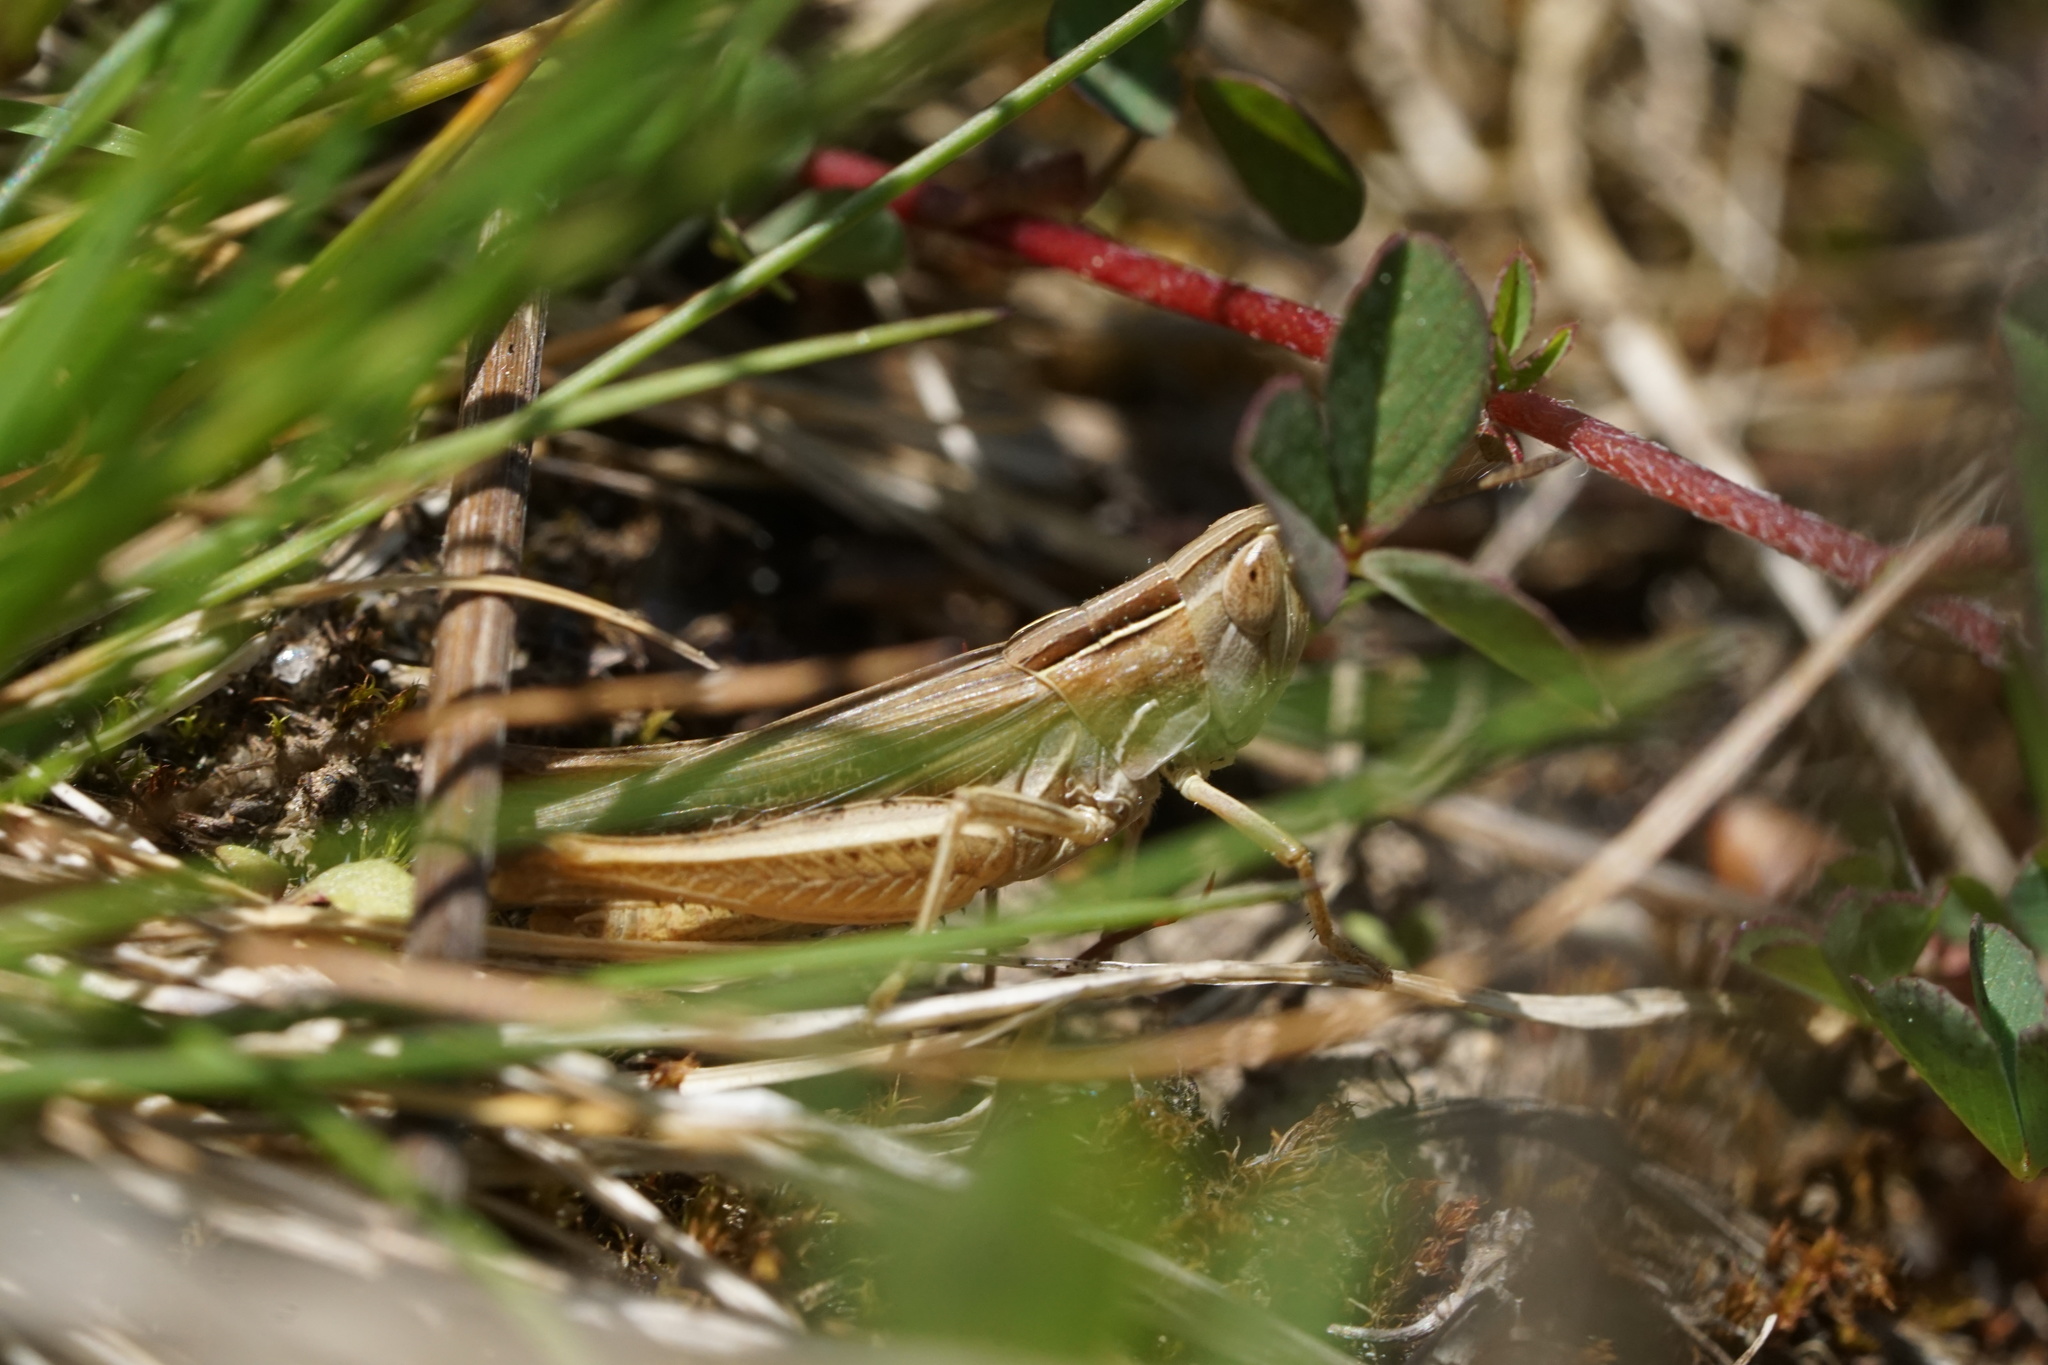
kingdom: Animalia
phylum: Arthropoda
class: Insecta
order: Orthoptera
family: Acrididae
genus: Eritettix
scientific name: Eritettix simplex
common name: Velvet-striped grasshopper
